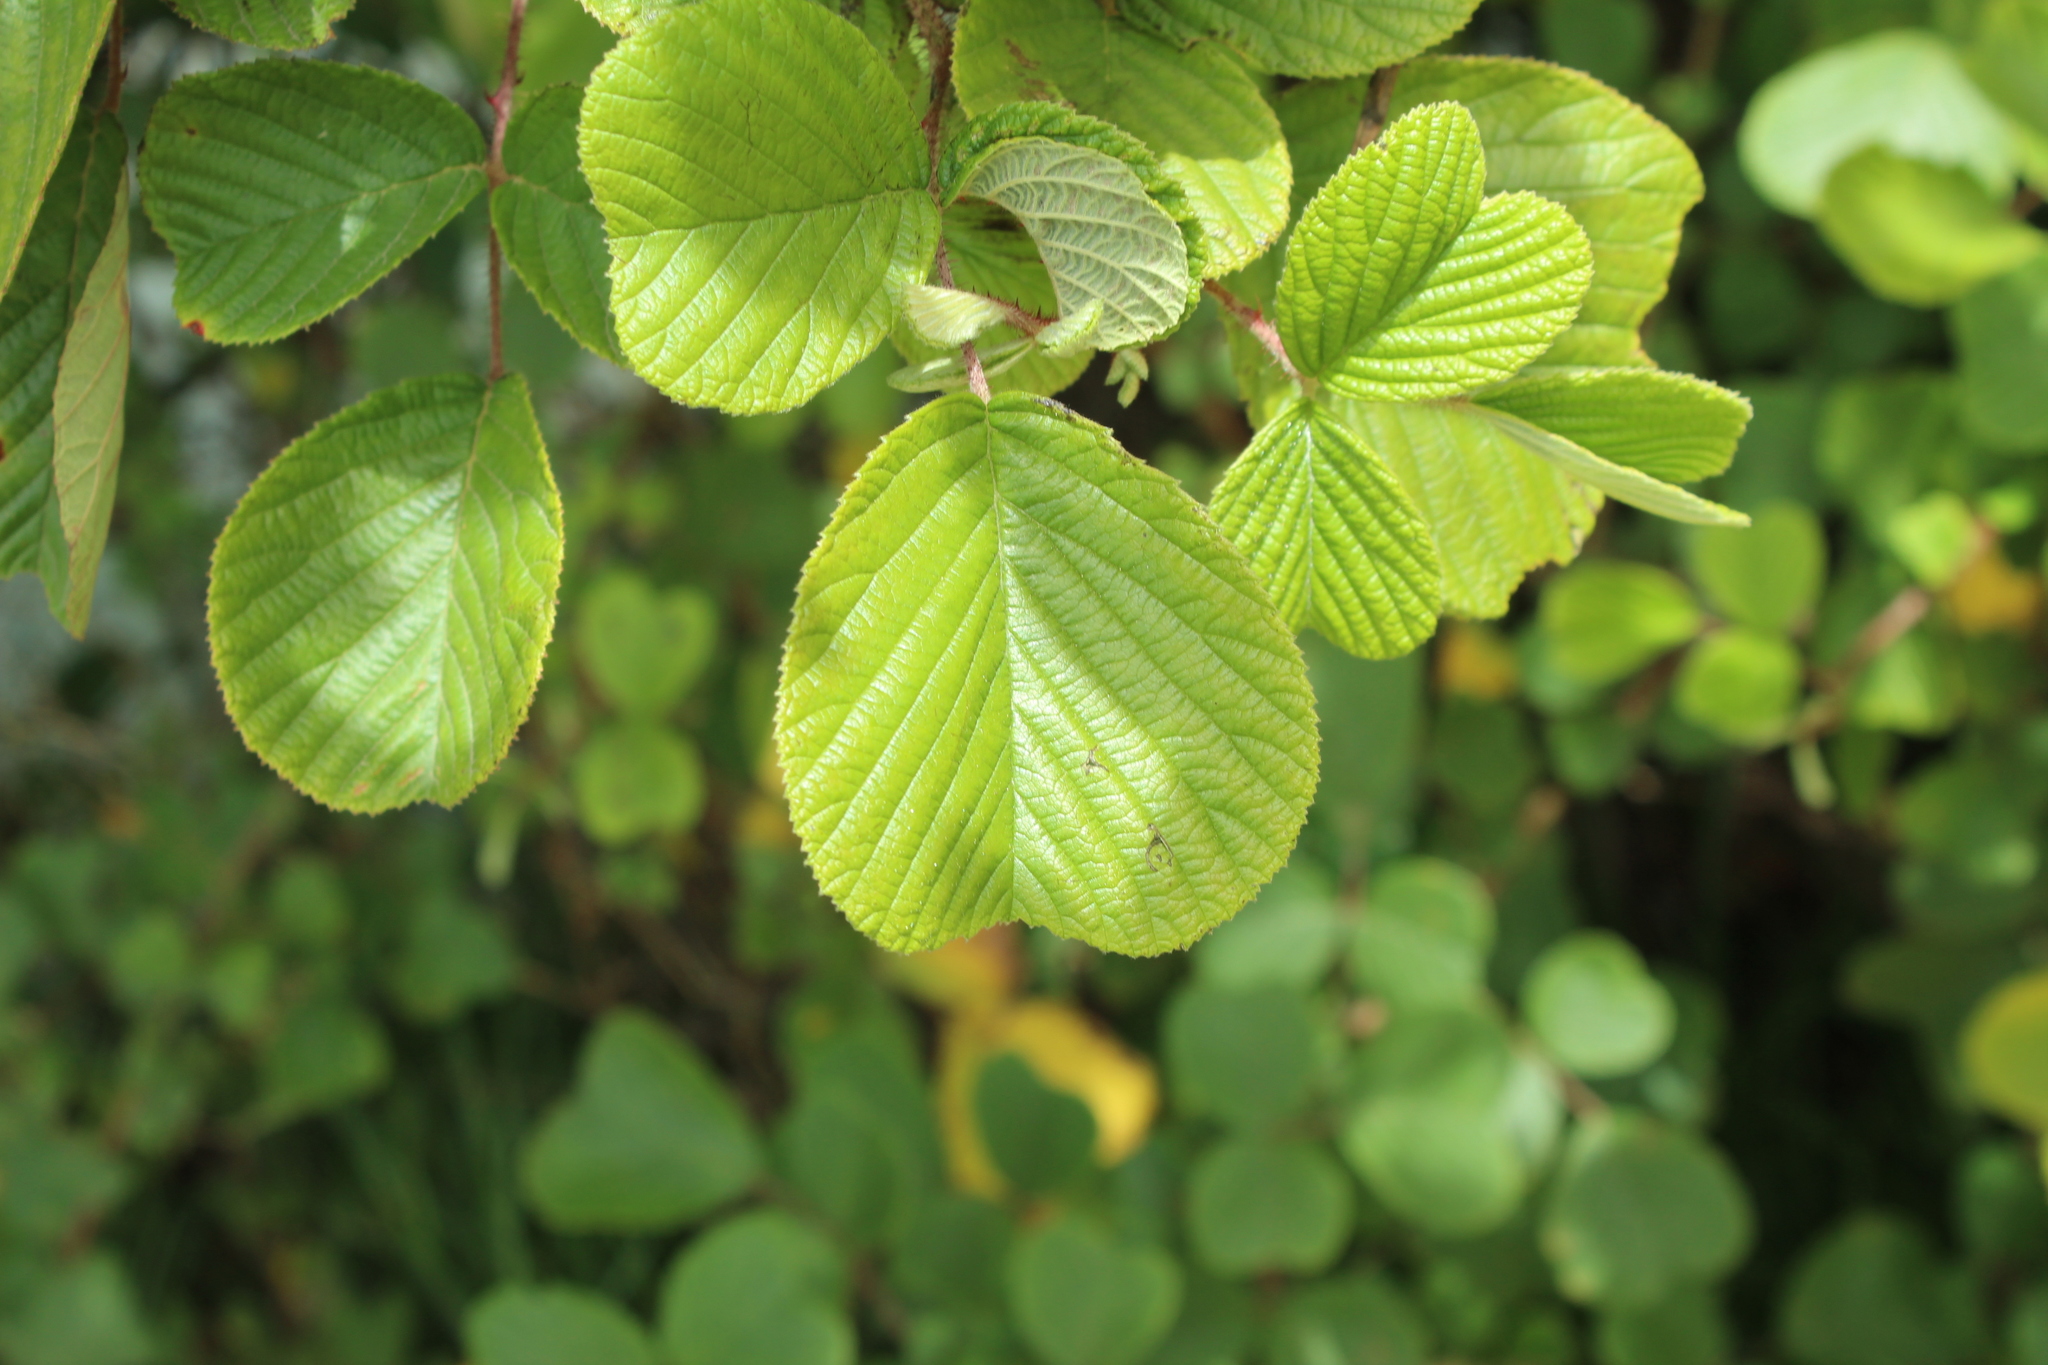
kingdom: Plantae
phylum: Tracheophyta
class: Magnoliopsida
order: Rosales
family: Rosaceae
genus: Rubus
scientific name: Rubus ellipticus
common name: Cheeseberry
